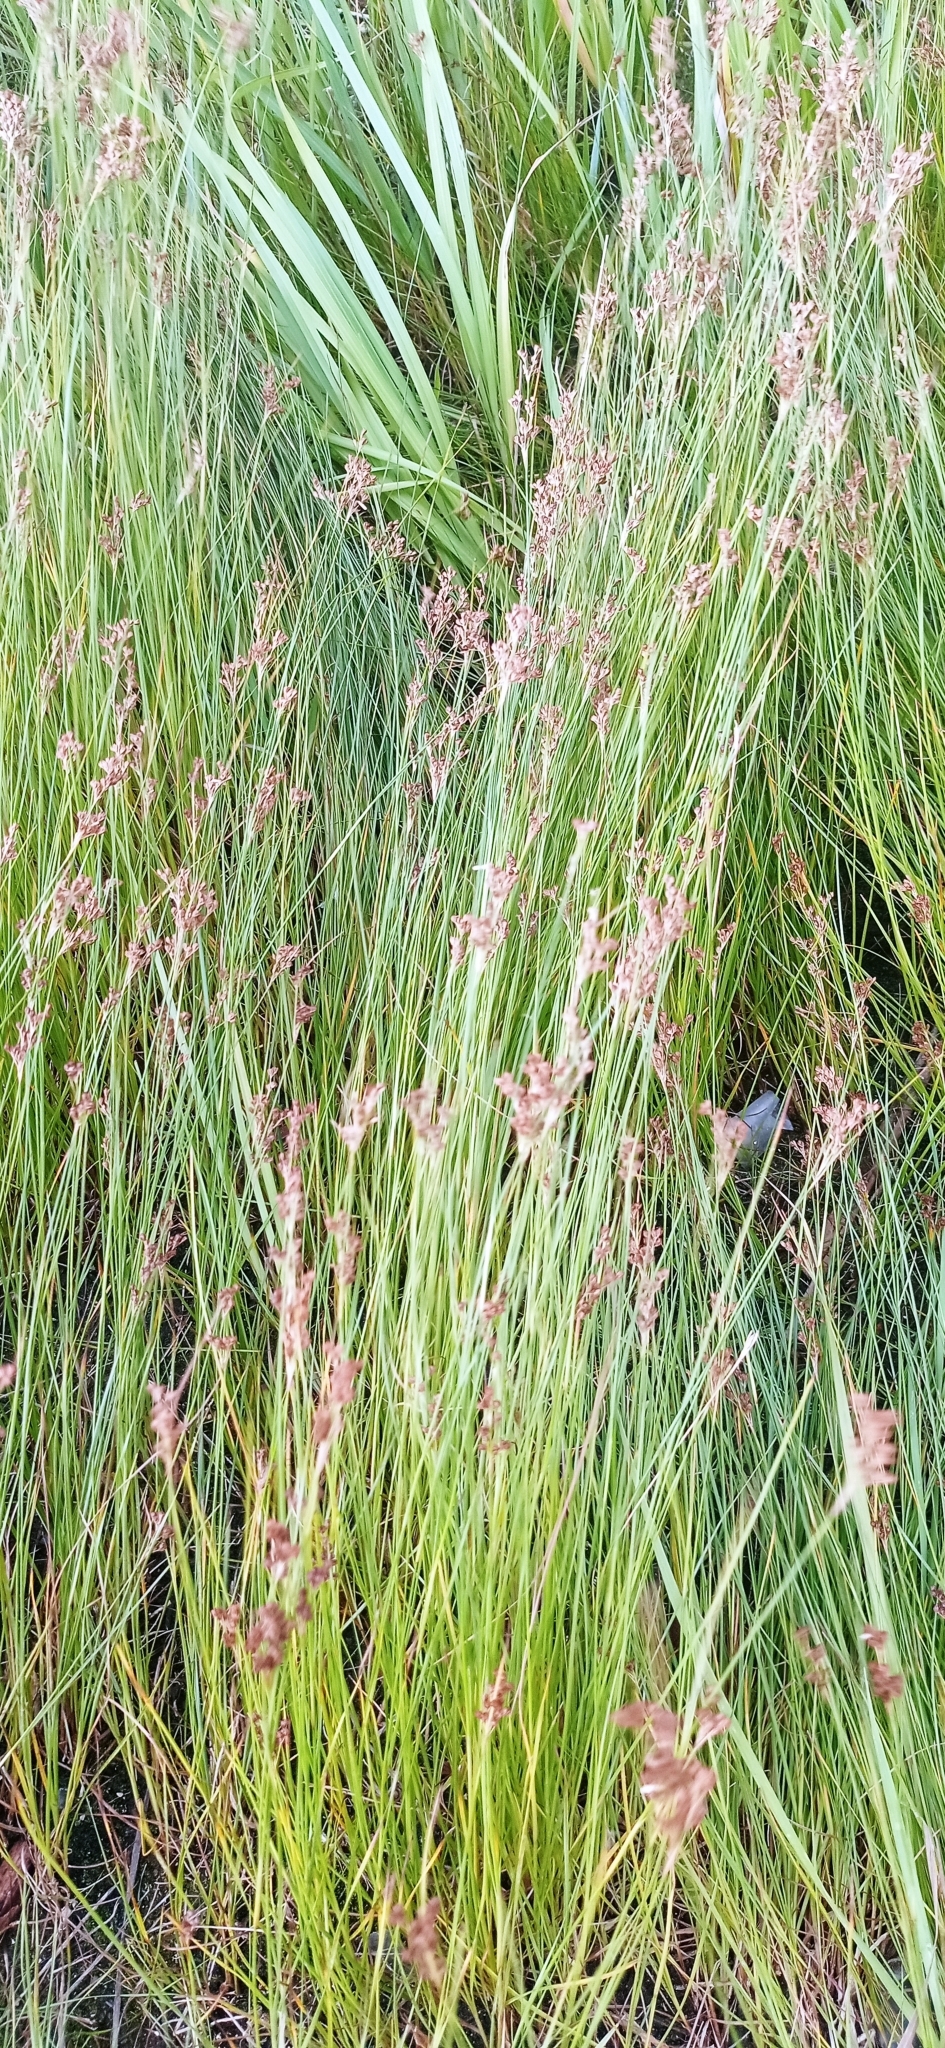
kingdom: Plantae
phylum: Tracheophyta
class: Liliopsida
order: Poales
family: Juncaceae
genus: Juncus
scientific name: Juncus compressus
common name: Round-fruited rush
